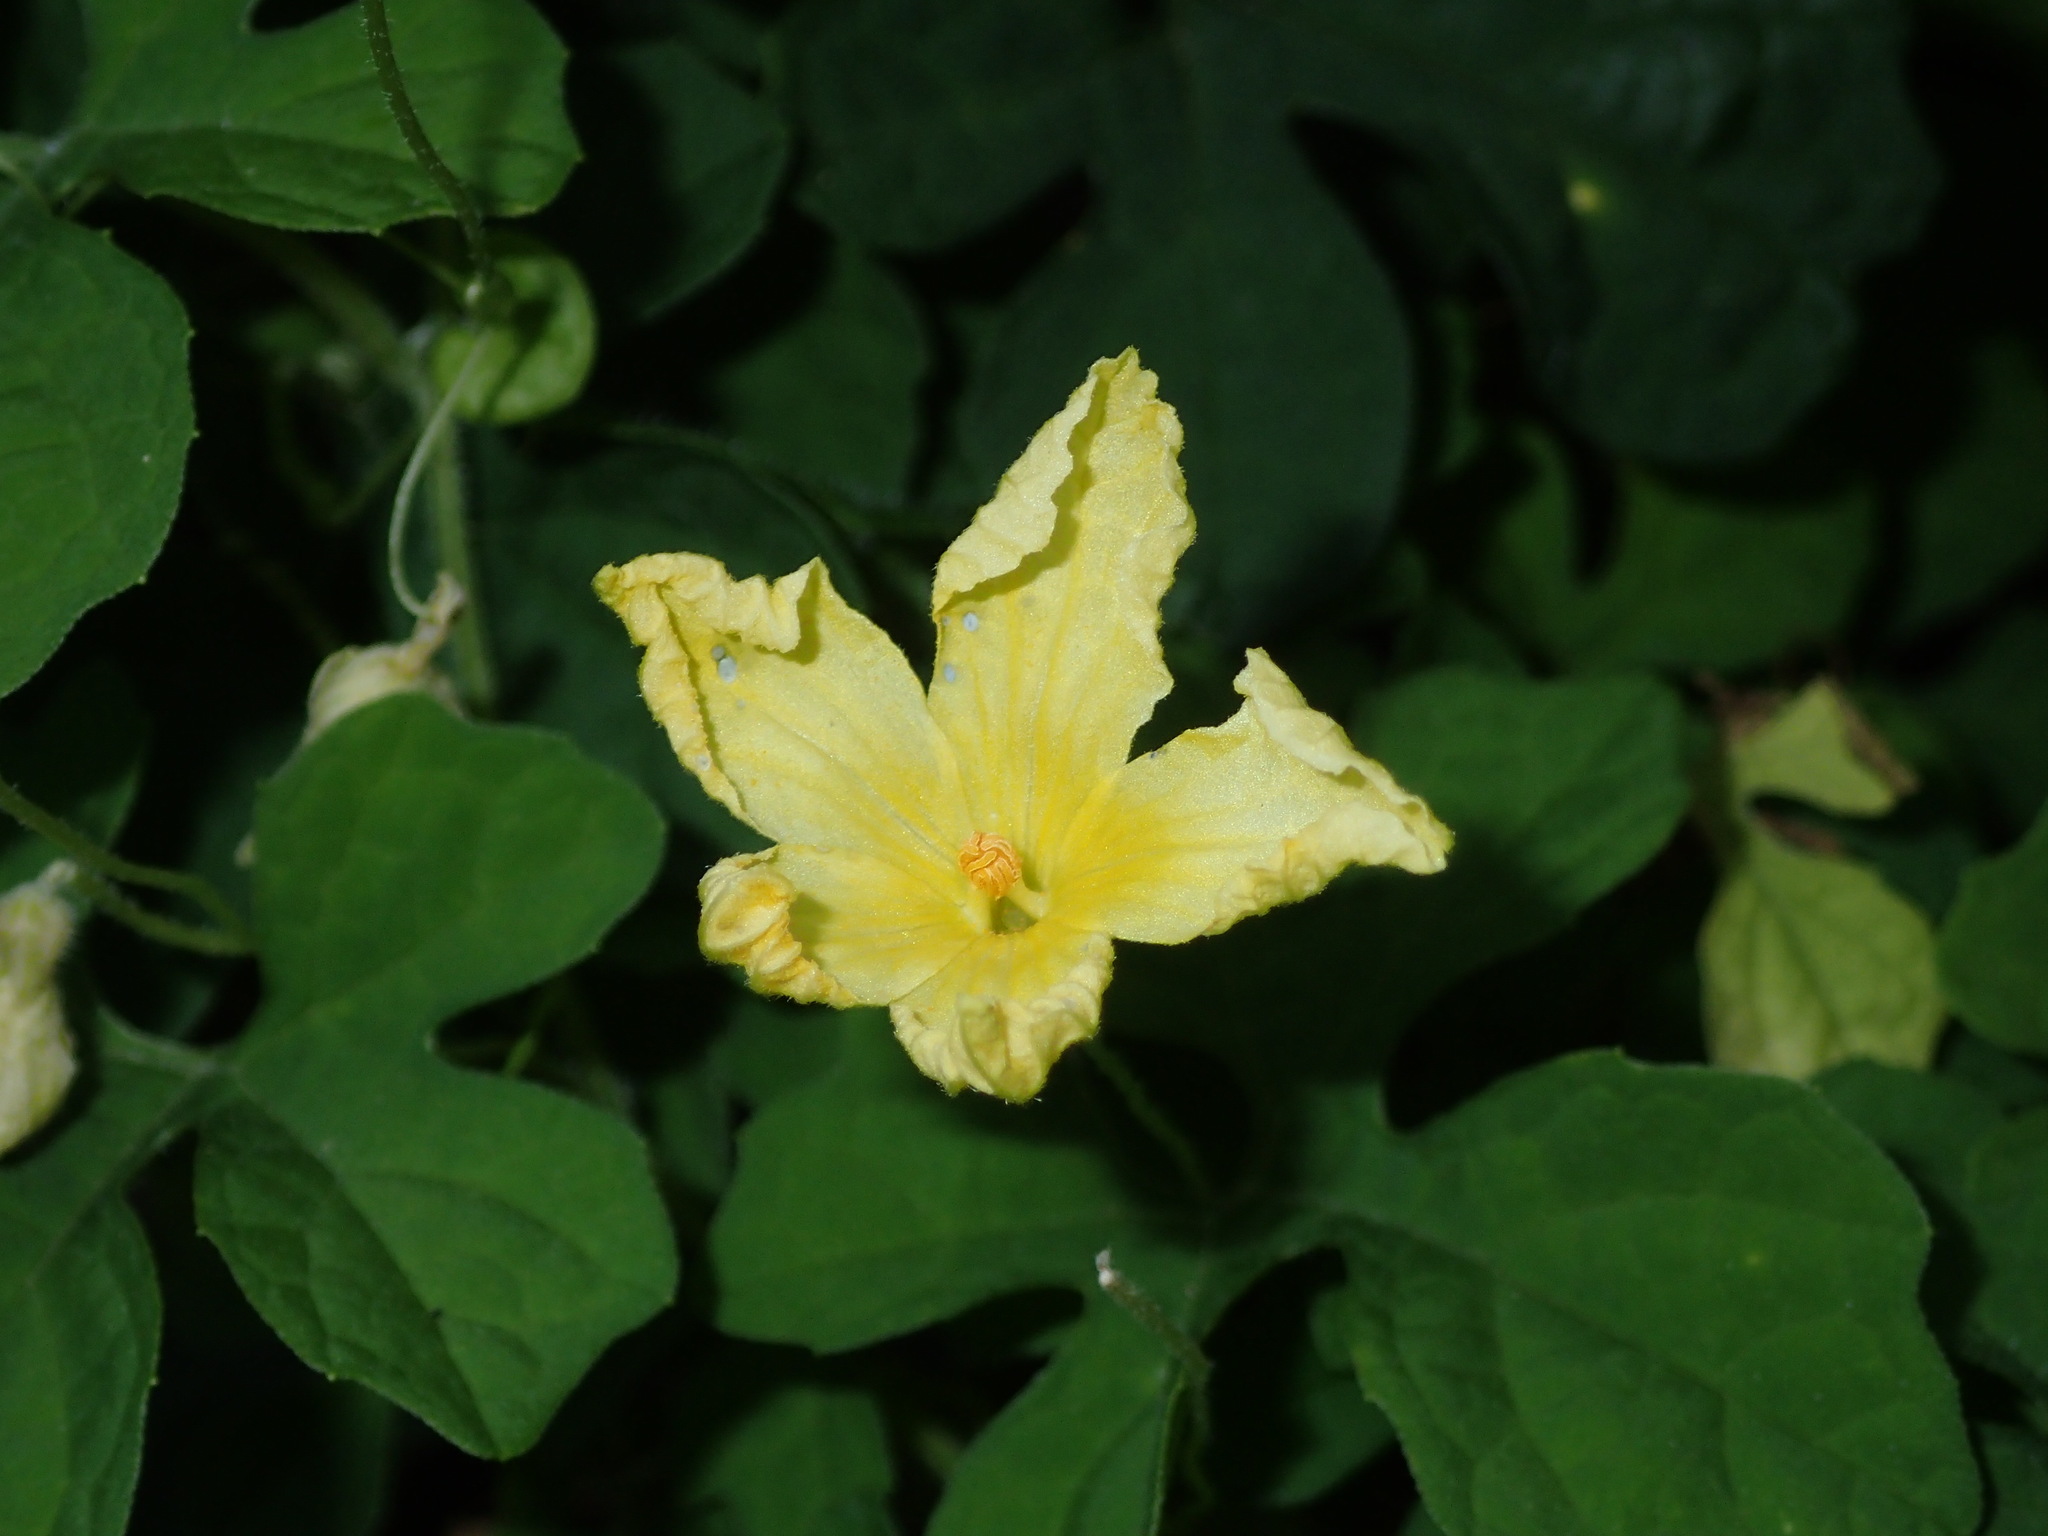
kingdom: Plantae
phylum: Tracheophyta
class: Magnoliopsida
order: Cucurbitales
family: Cucurbitaceae
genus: Momordica
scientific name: Momordica charantia
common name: Balsampear
